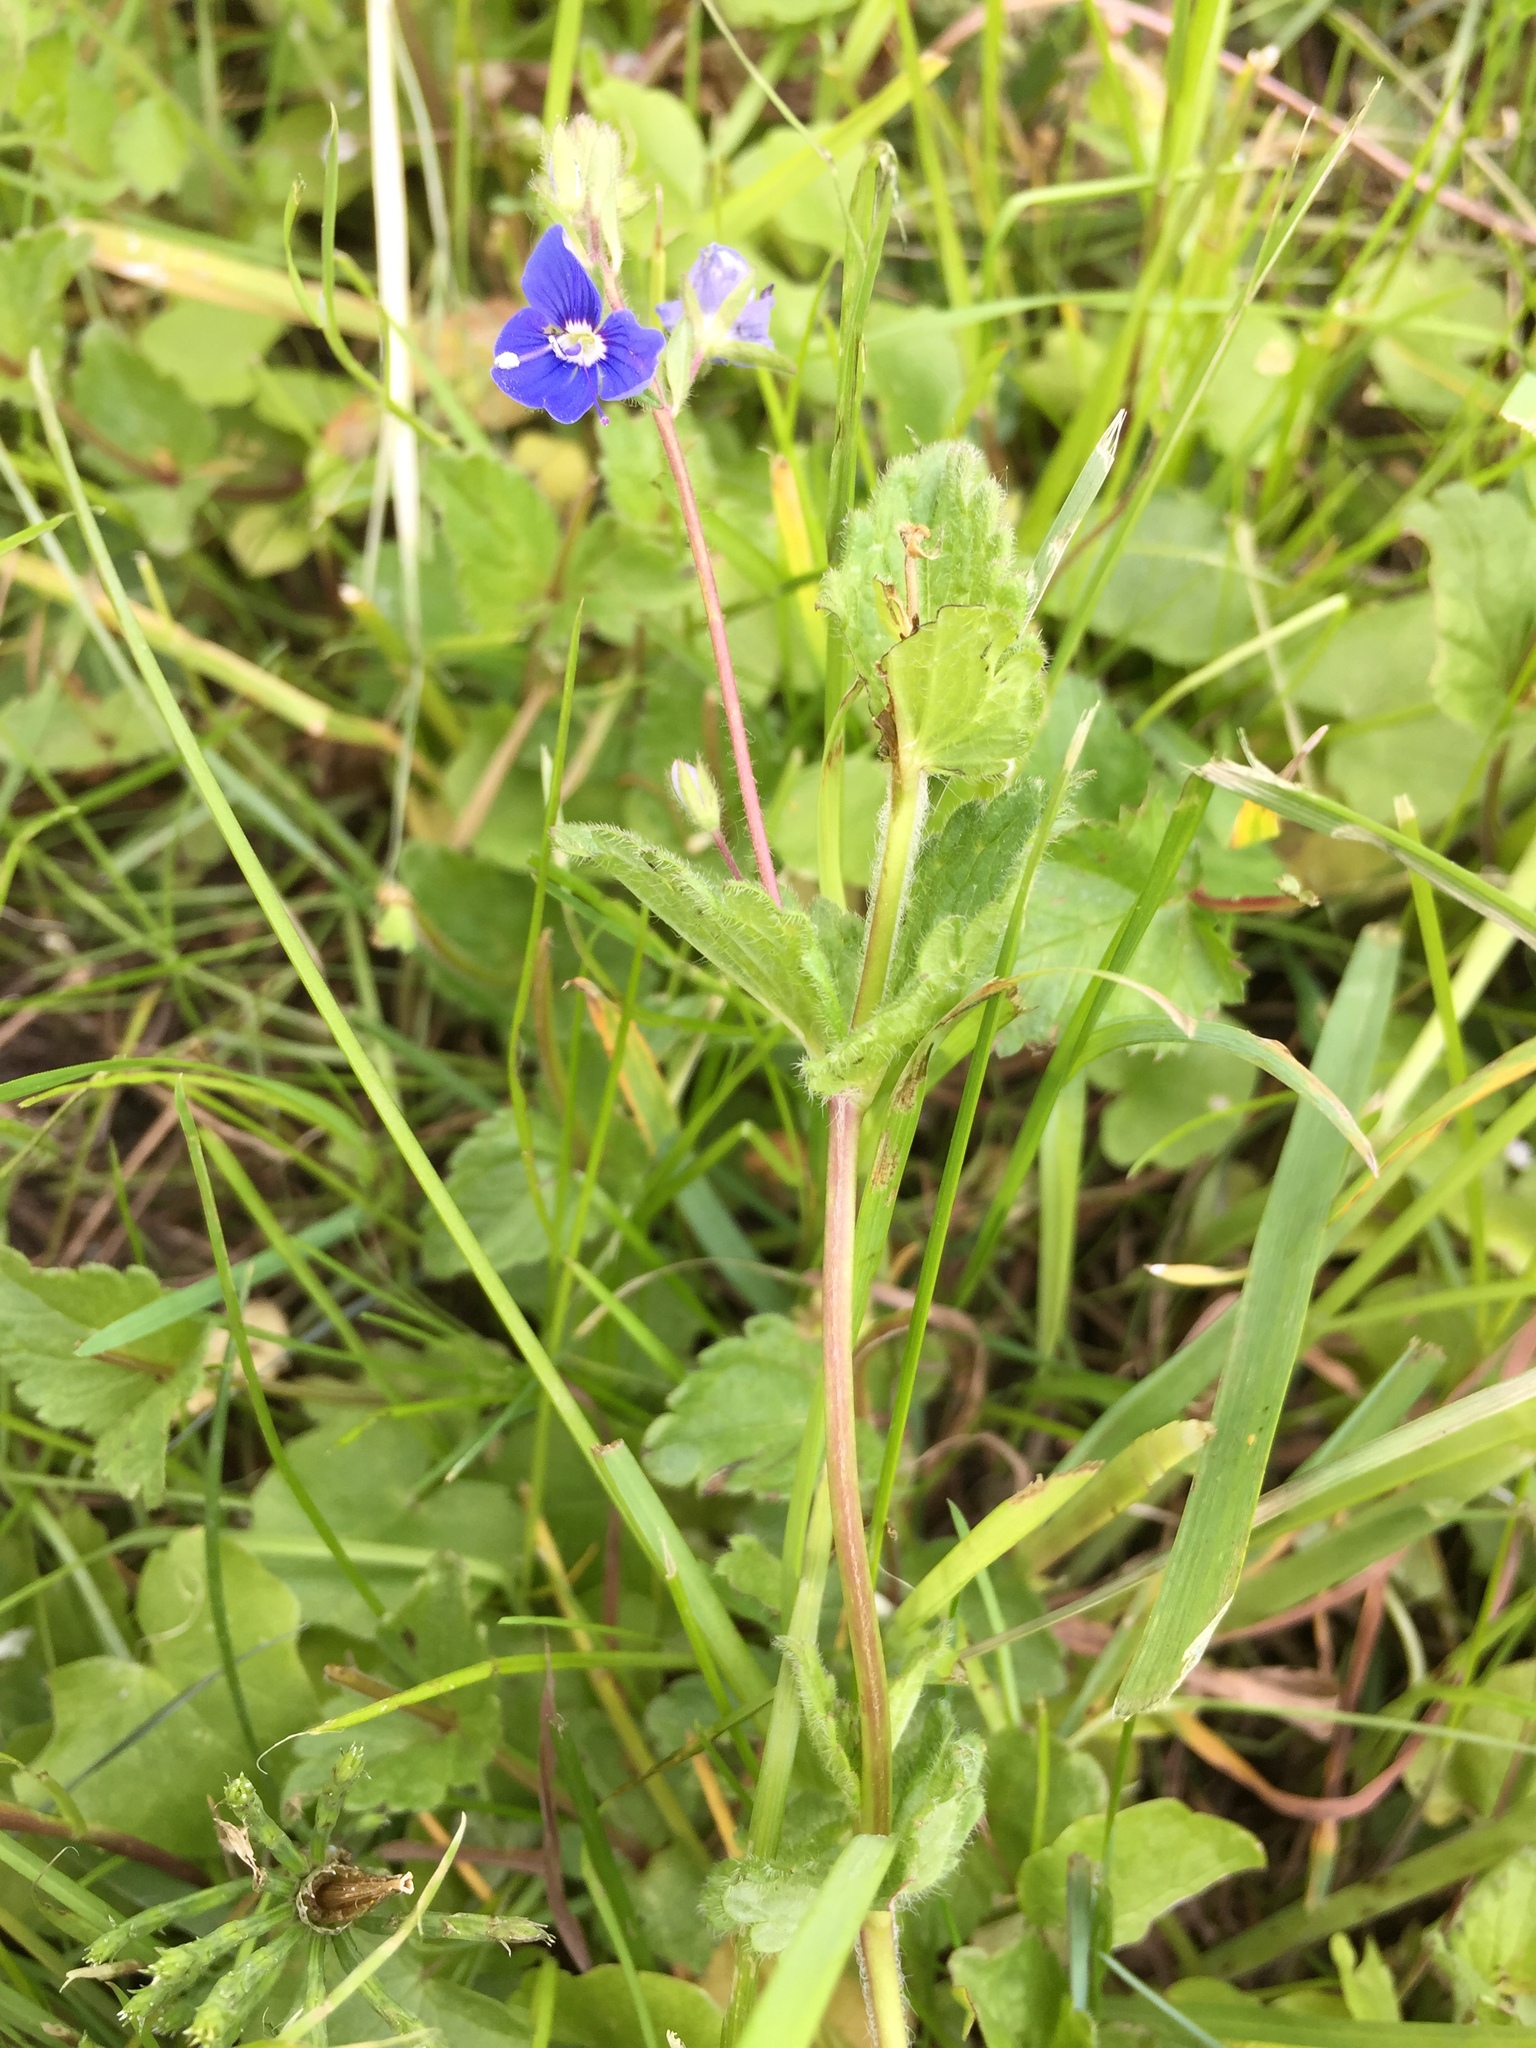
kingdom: Plantae
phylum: Tracheophyta
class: Magnoliopsida
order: Lamiales
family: Plantaginaceae
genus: Veronica
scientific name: Veronica chamaedrys
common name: Germander speedwell
